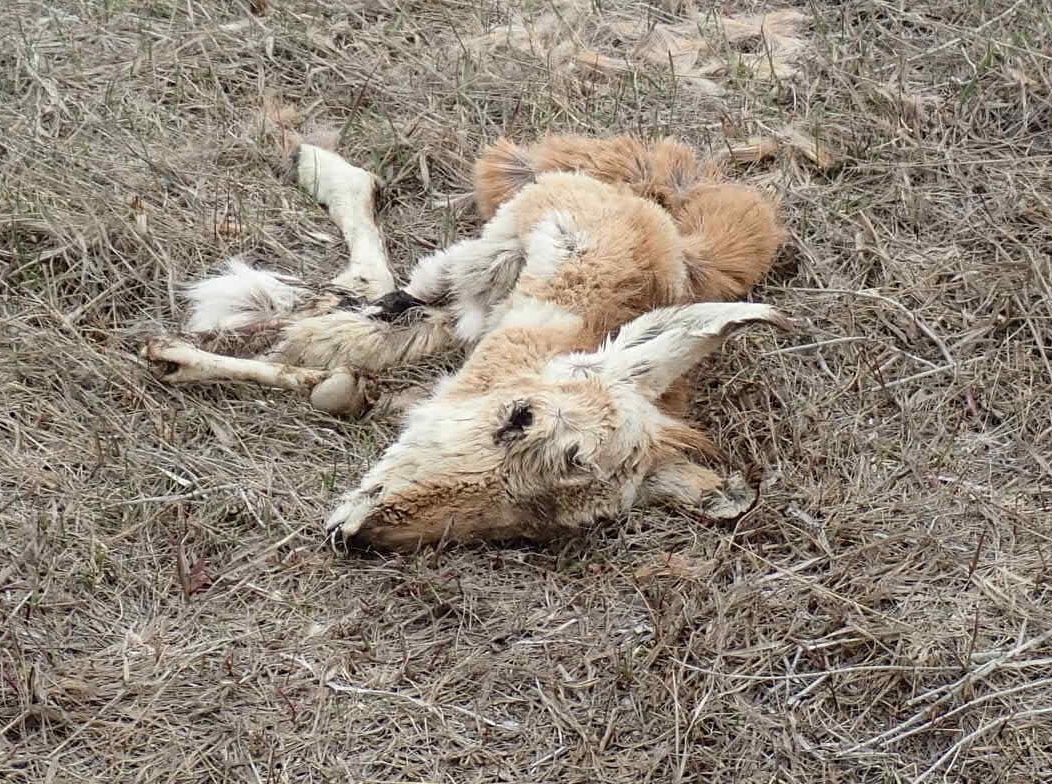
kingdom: Animalia
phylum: Chordata
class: Mammalia
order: Artiodactyla
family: Antilocapridae
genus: Antilocapra
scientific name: Antilocapra americana
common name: Pronghorn
